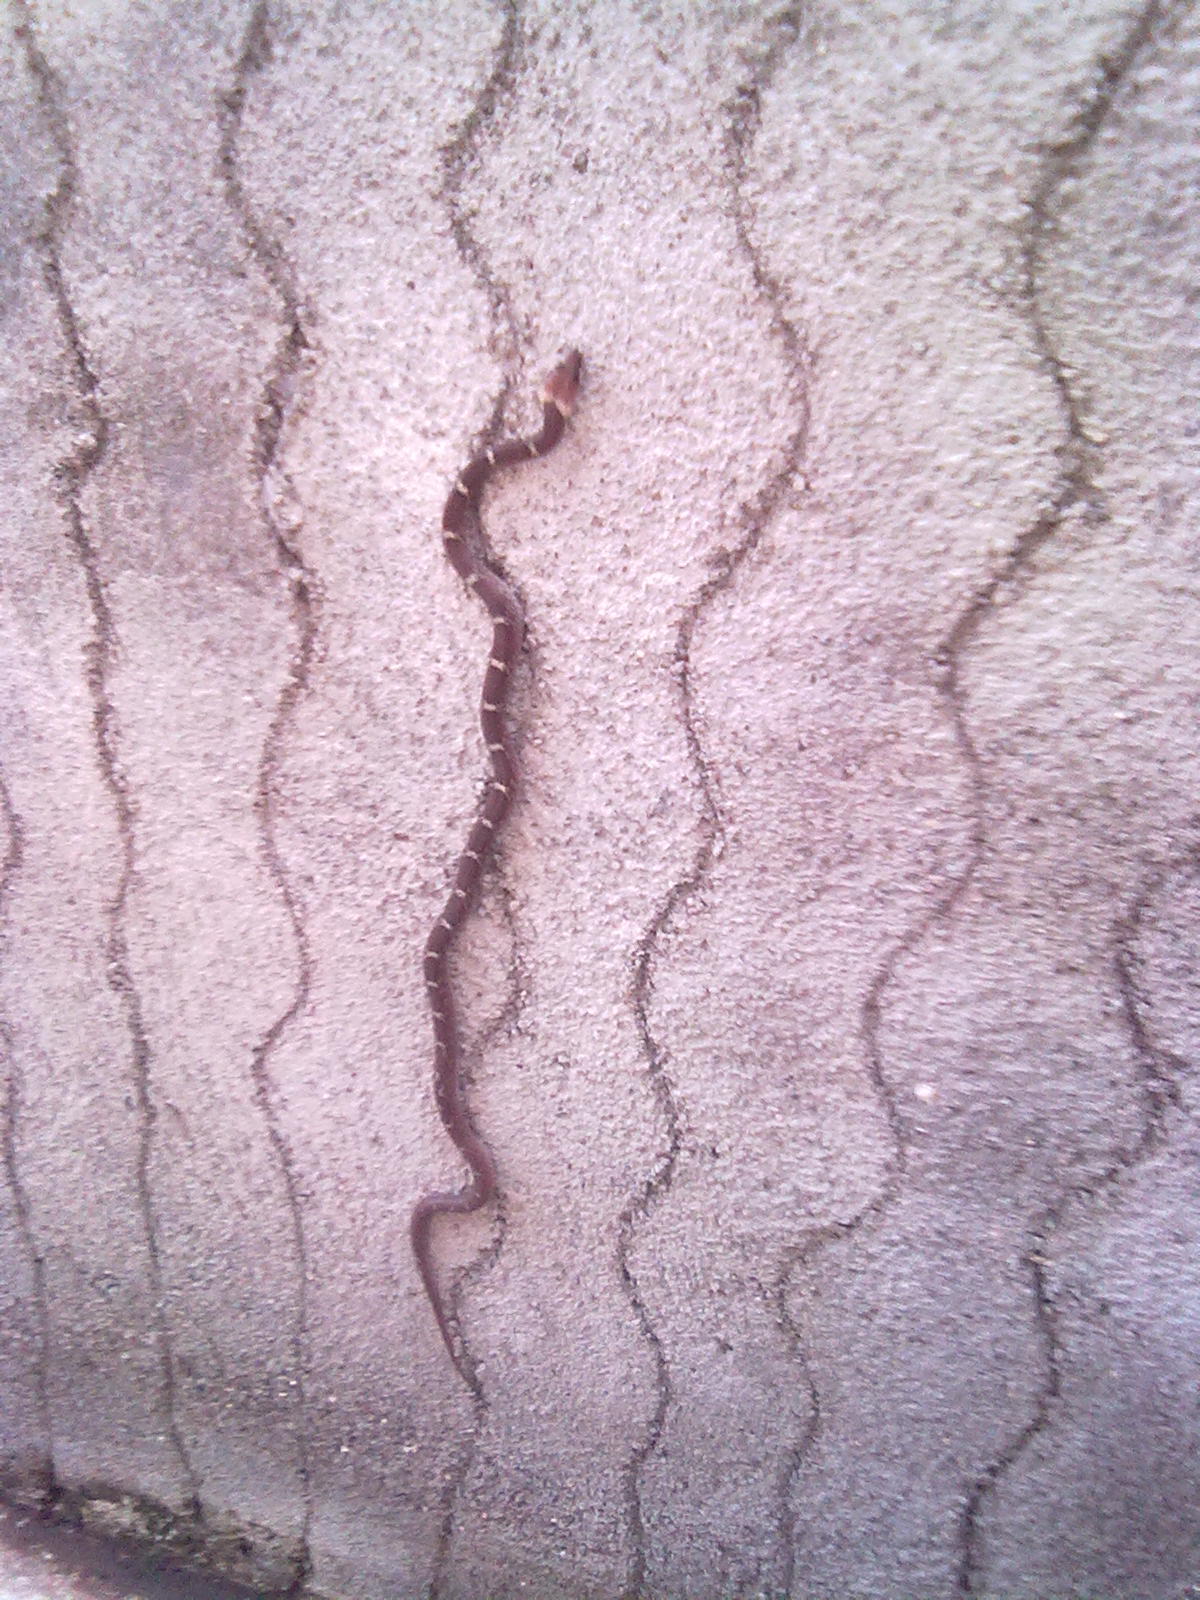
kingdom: Animalia
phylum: Chordata
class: Squamata
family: Colubridae
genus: Lycodon
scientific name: Lycodon aulicus
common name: Common wolf snake
